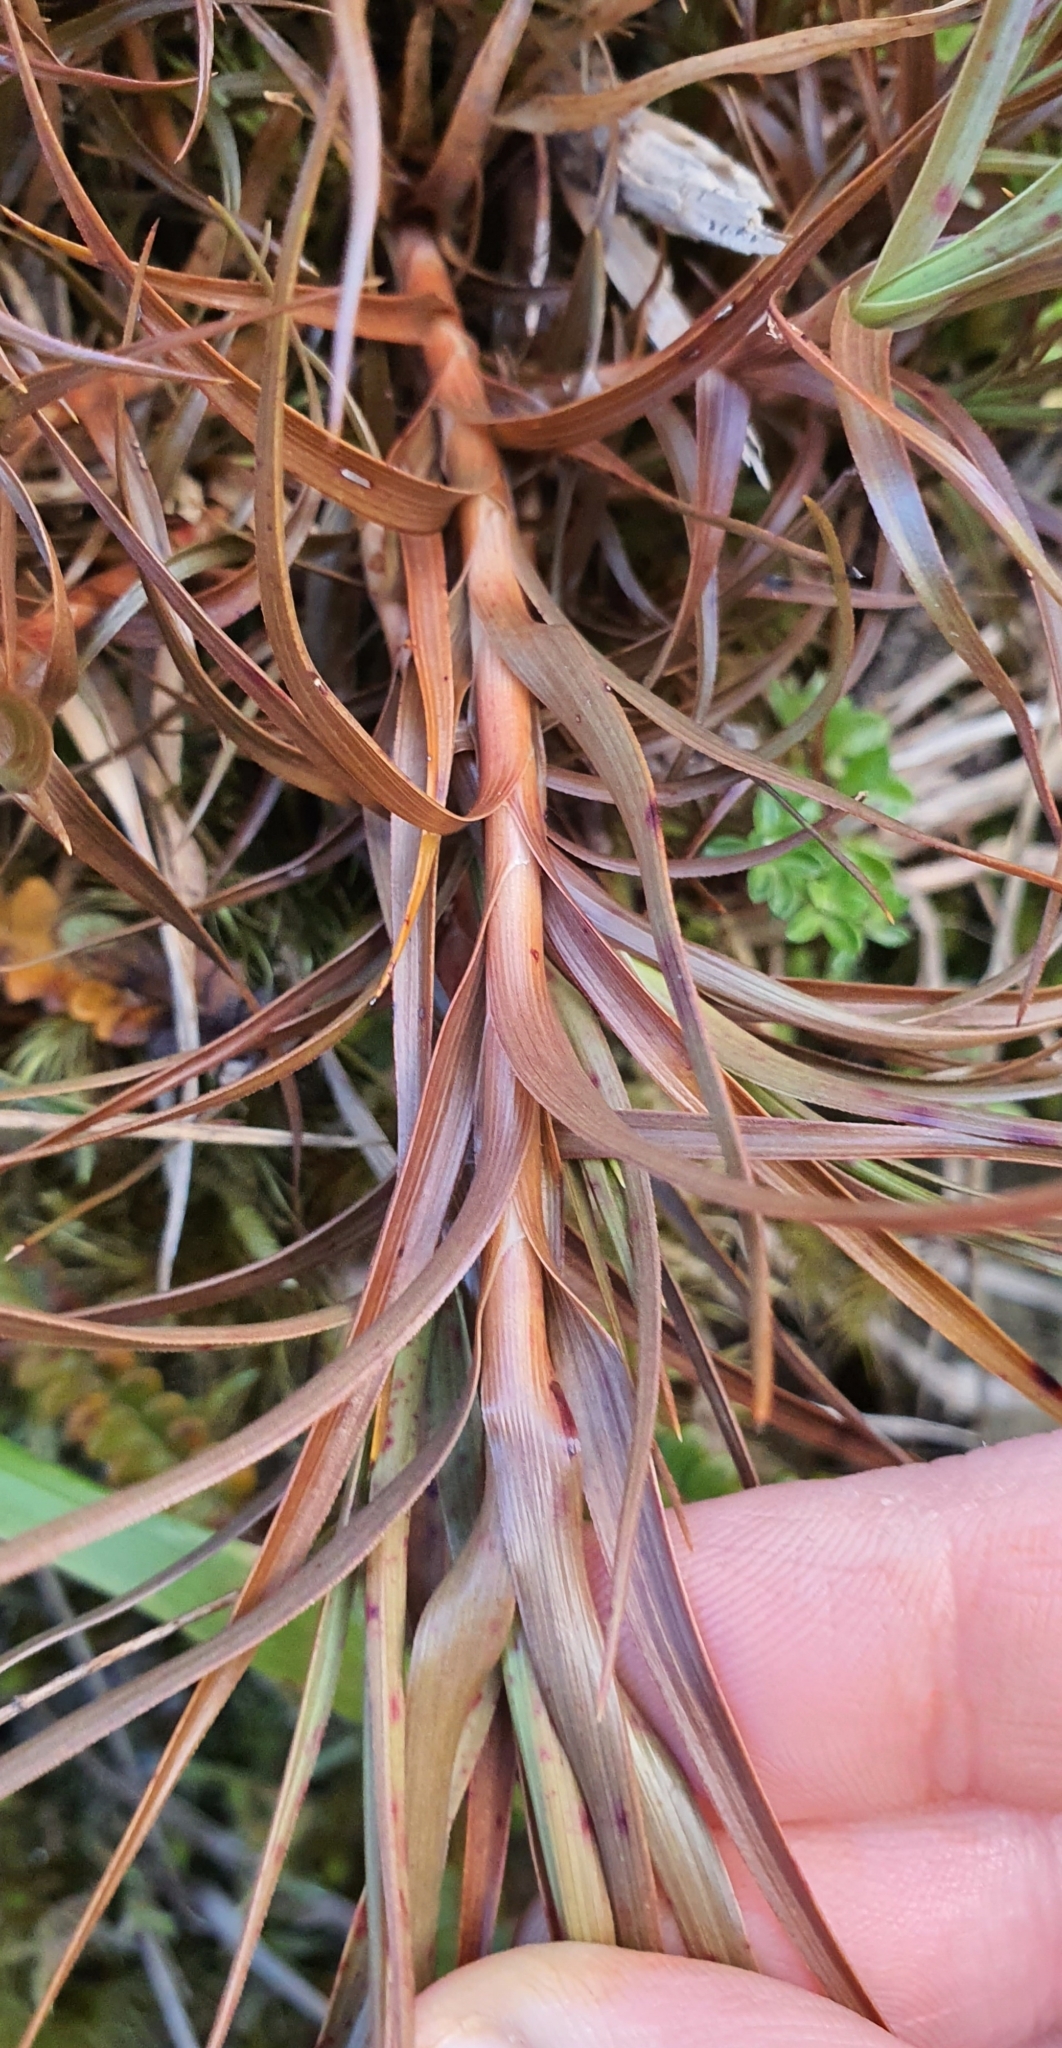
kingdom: Plantae
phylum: Tracheophyta
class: Magnoliopsida
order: Ericales
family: Ericaceae
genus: Dracophyllum
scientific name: Dracophyllum longifolium
